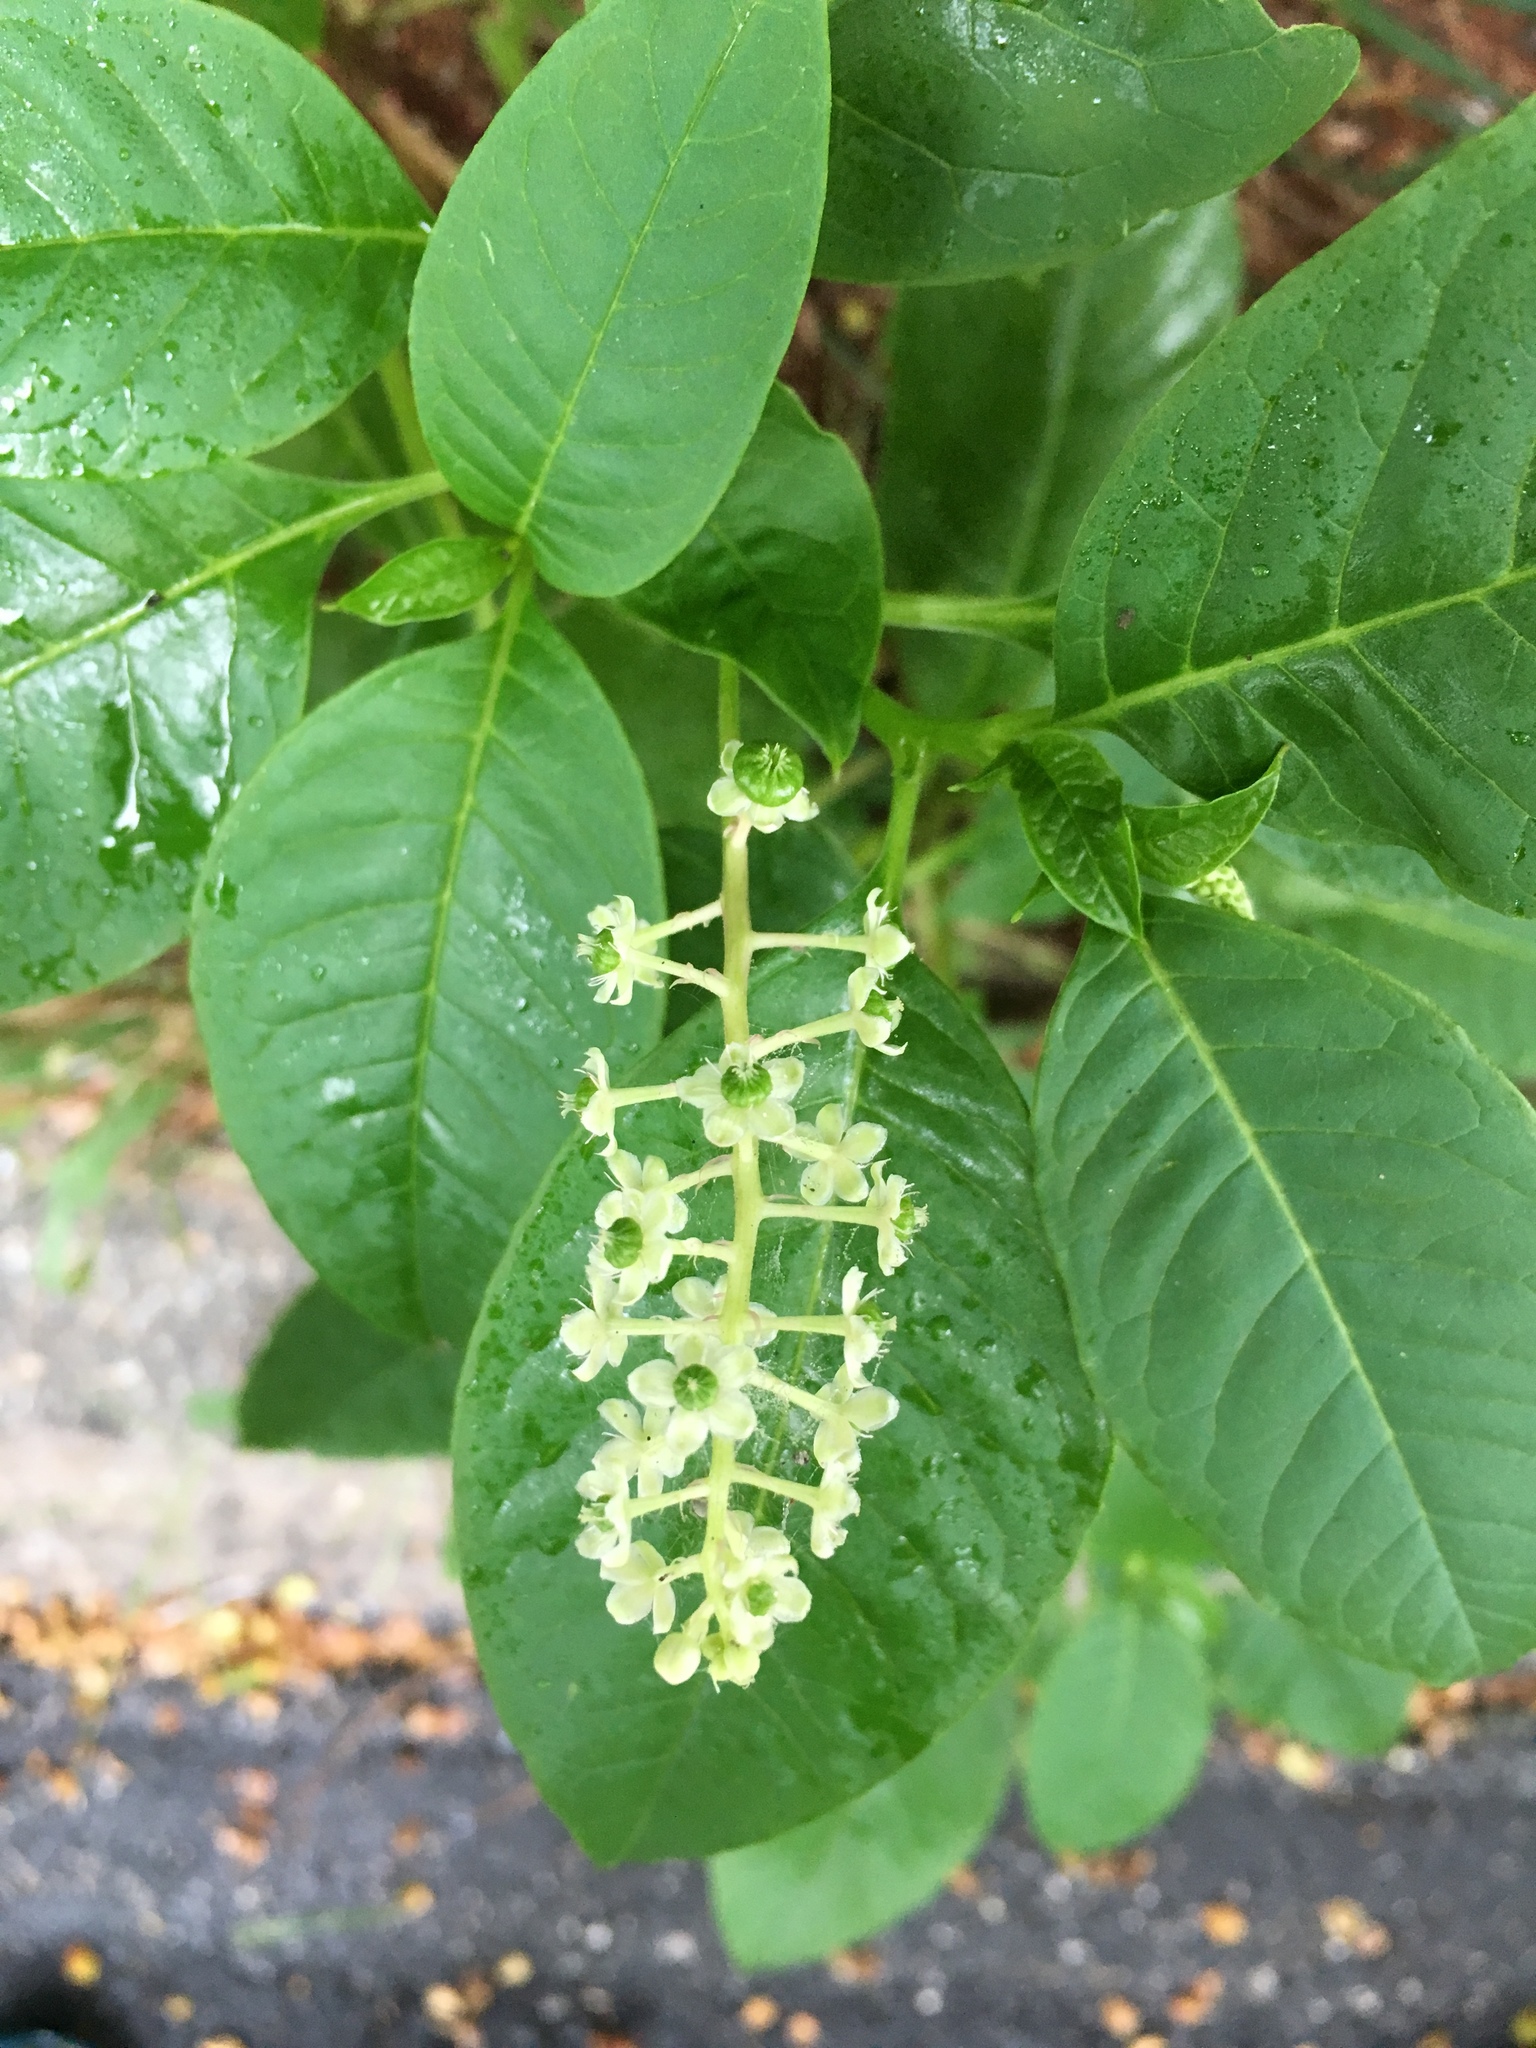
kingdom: Plantae
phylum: Tracheophyta
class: Magnoliopsida
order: Caryophyllales
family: Phytolaccaceae
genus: Phytolacca
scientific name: Phytolacca americana
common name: American pokeweed
